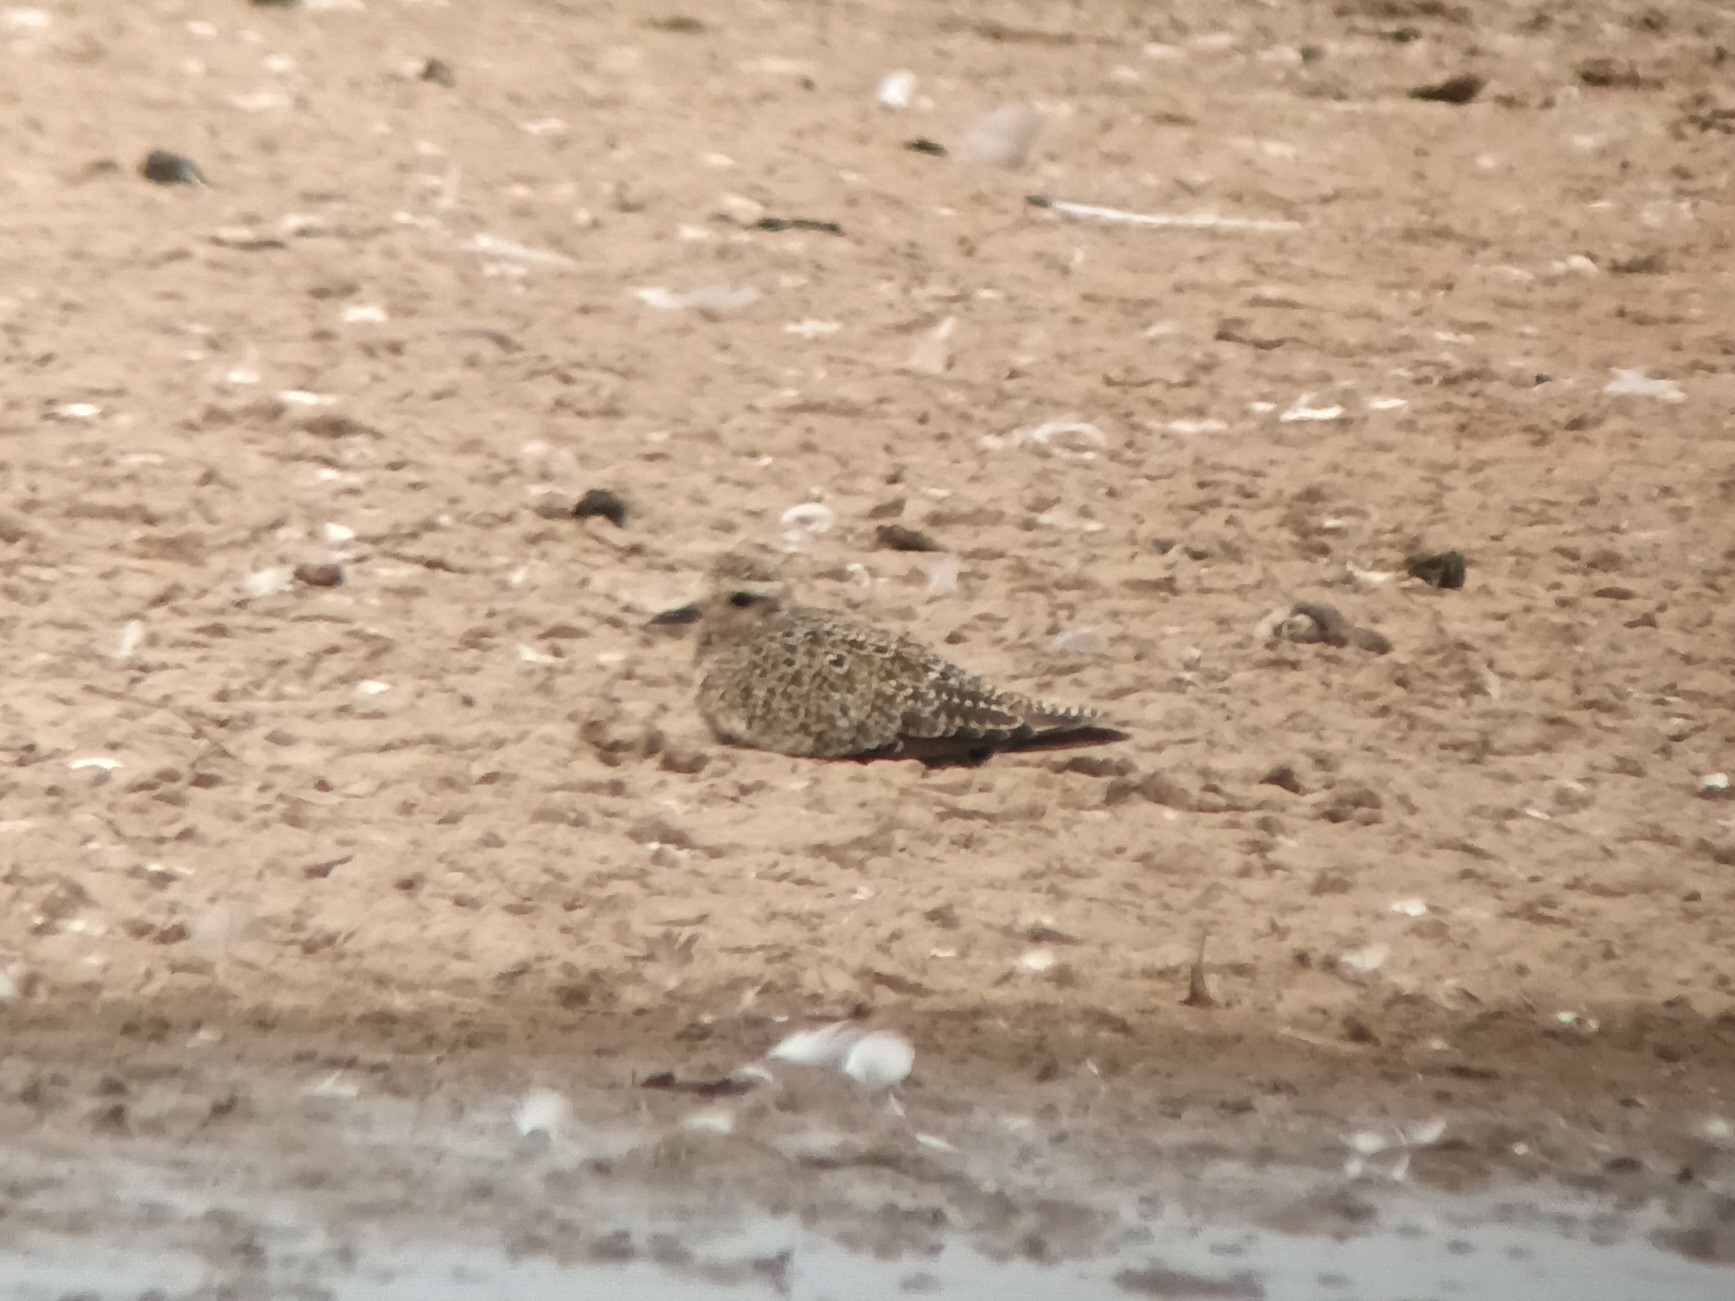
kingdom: Animalia
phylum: Chordata
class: Aves
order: Charadriiformes
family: Charadriidae
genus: Pluvialis
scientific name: Pluvialis apricaria
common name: European golden plover
